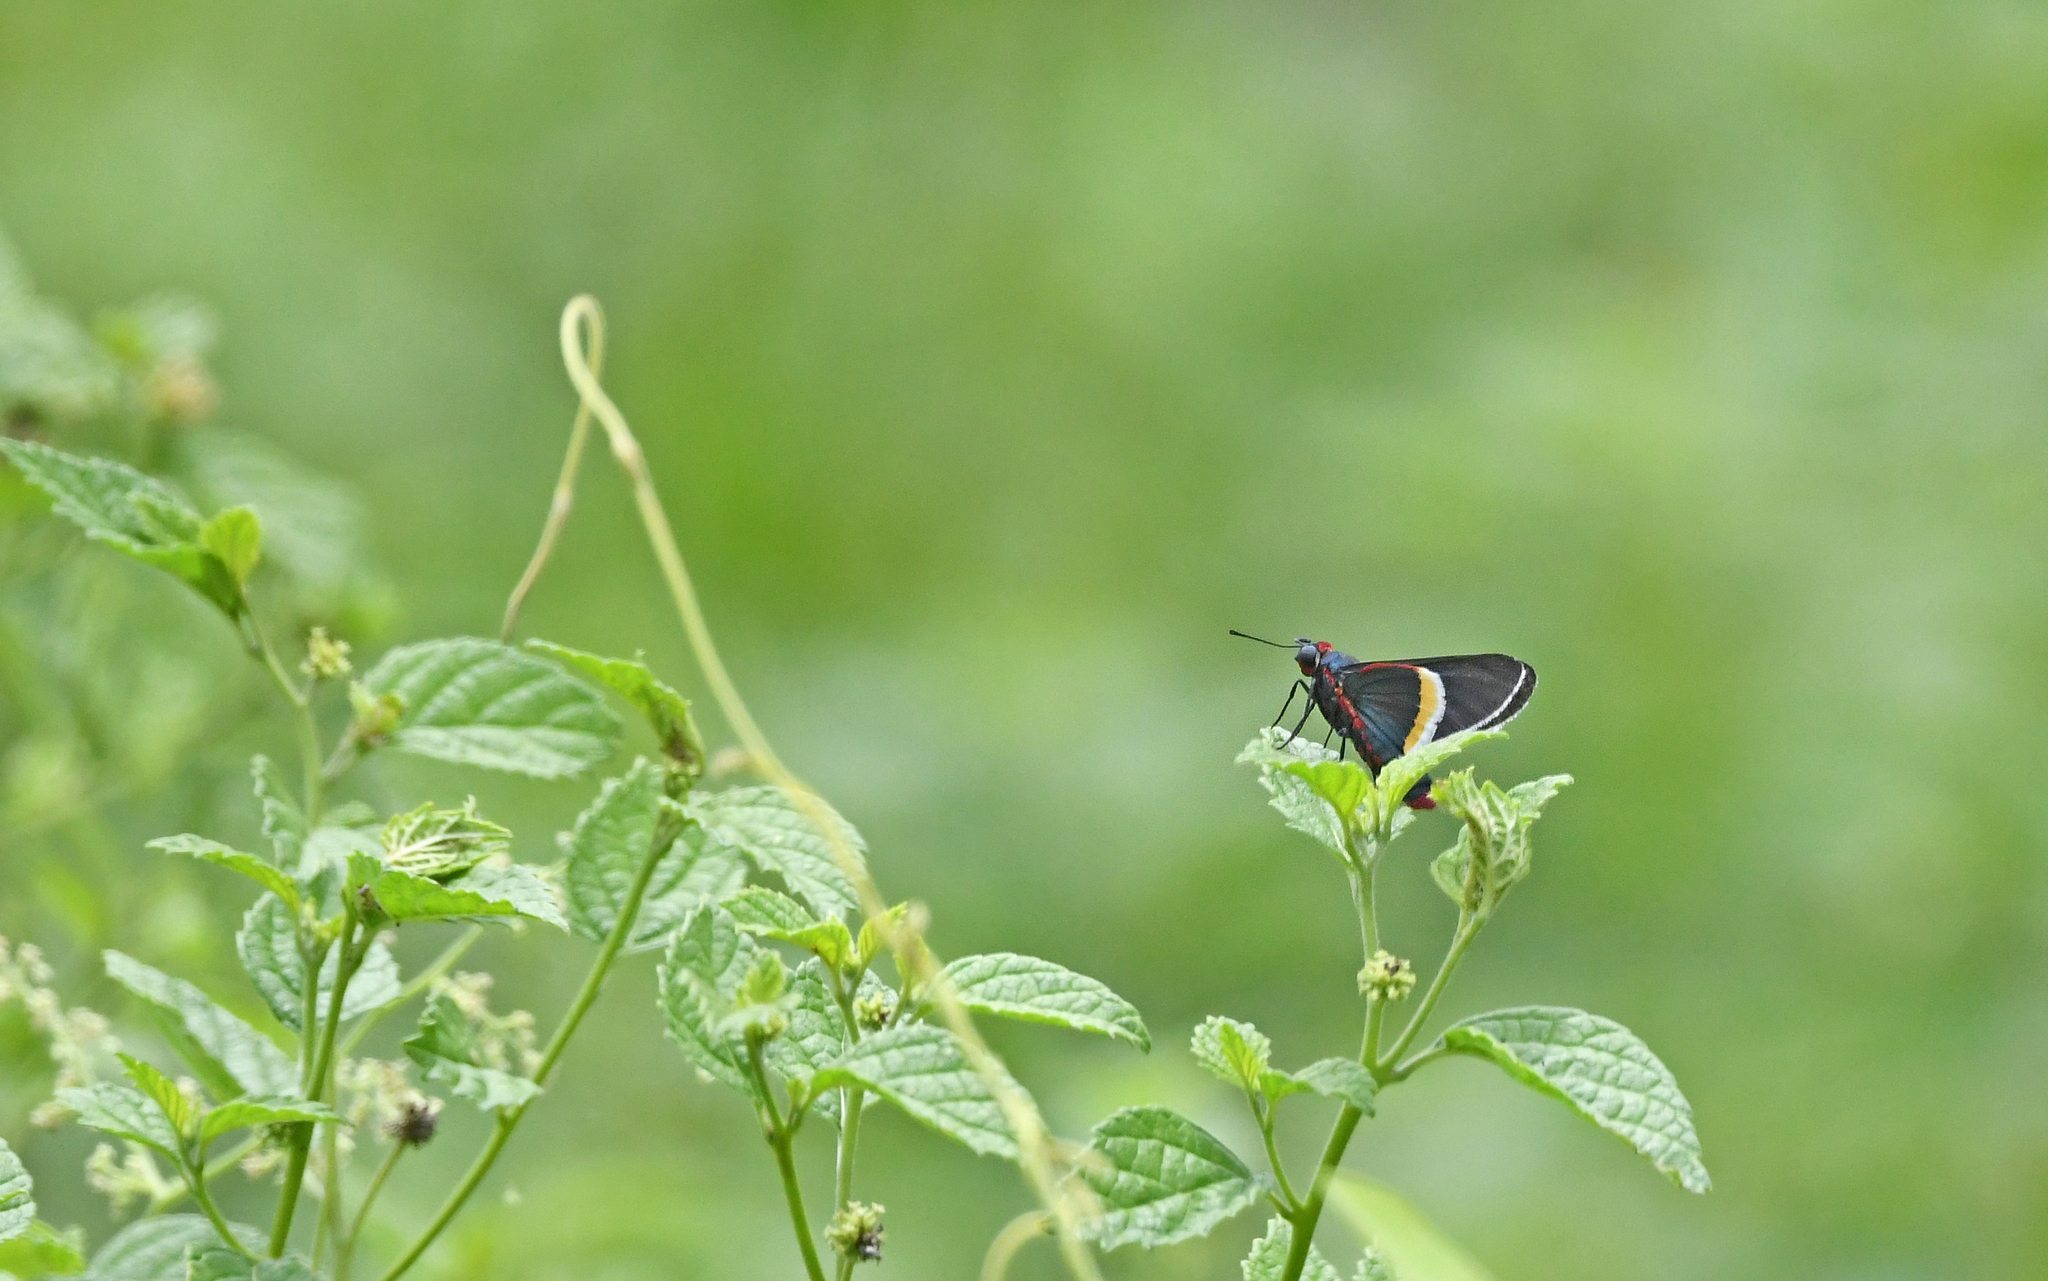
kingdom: Animalia
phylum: Arthropoda
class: Insecta
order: Lepidoptera
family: Hesperiidae
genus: Mysoria
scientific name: Mysoria barcastus
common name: Royal firetip
